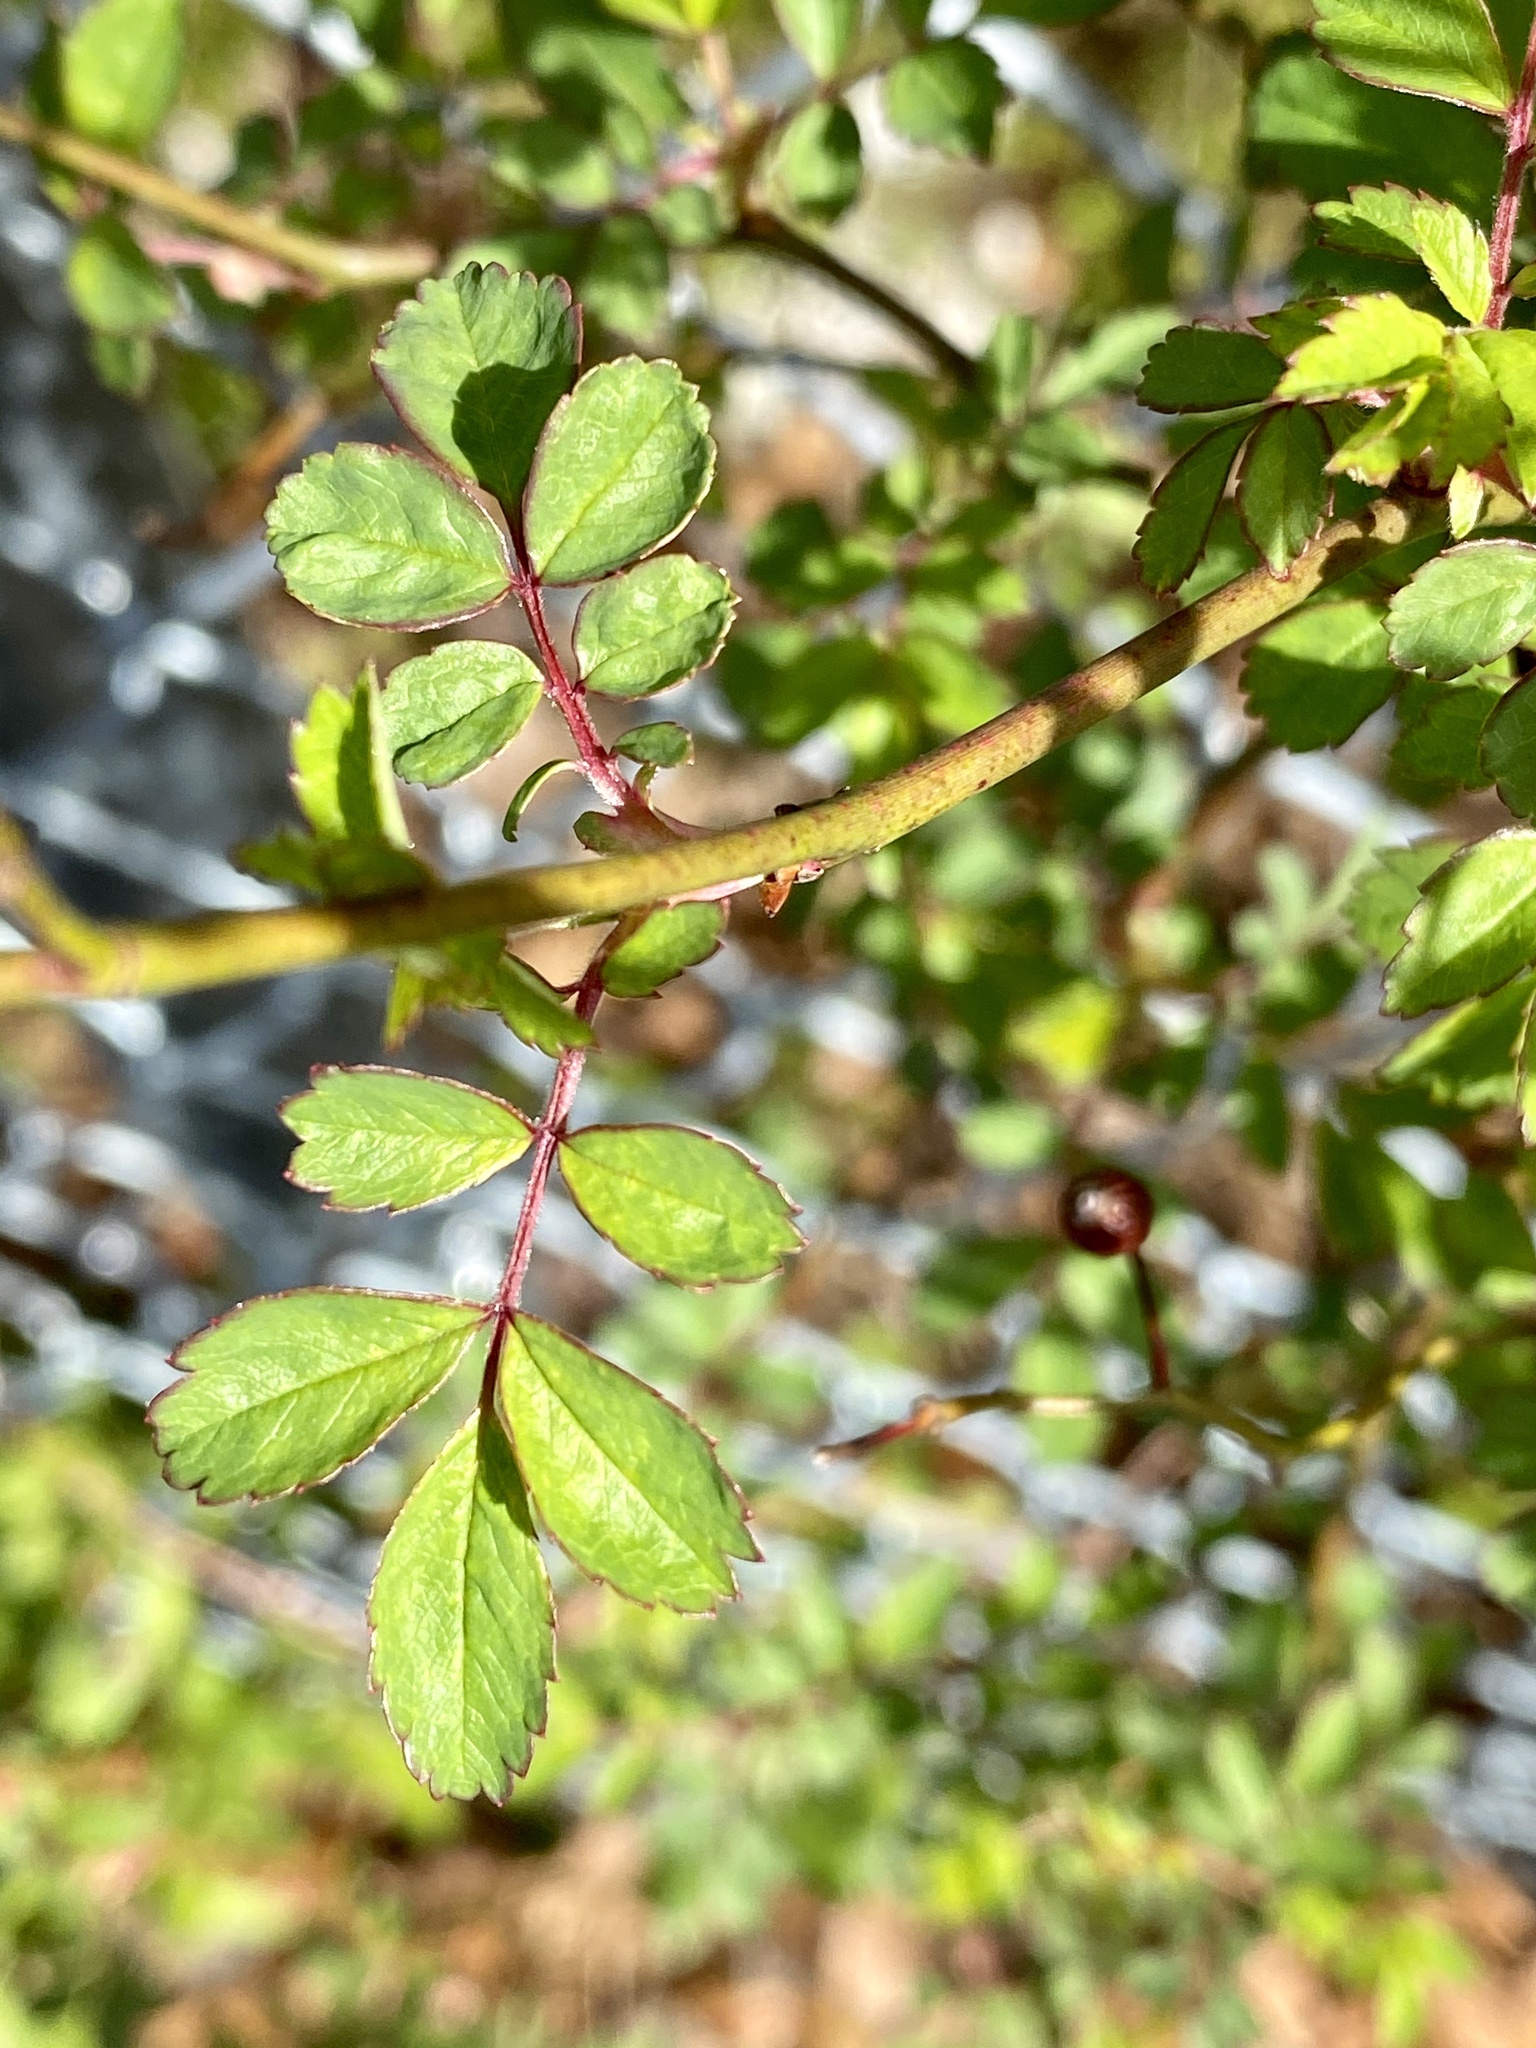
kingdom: Plantae
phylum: Tracheophyta
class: Magnoliopsida
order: Rosales
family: Rosaceae
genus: Rosa
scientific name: Rosa multiflora
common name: Multiflora rose
